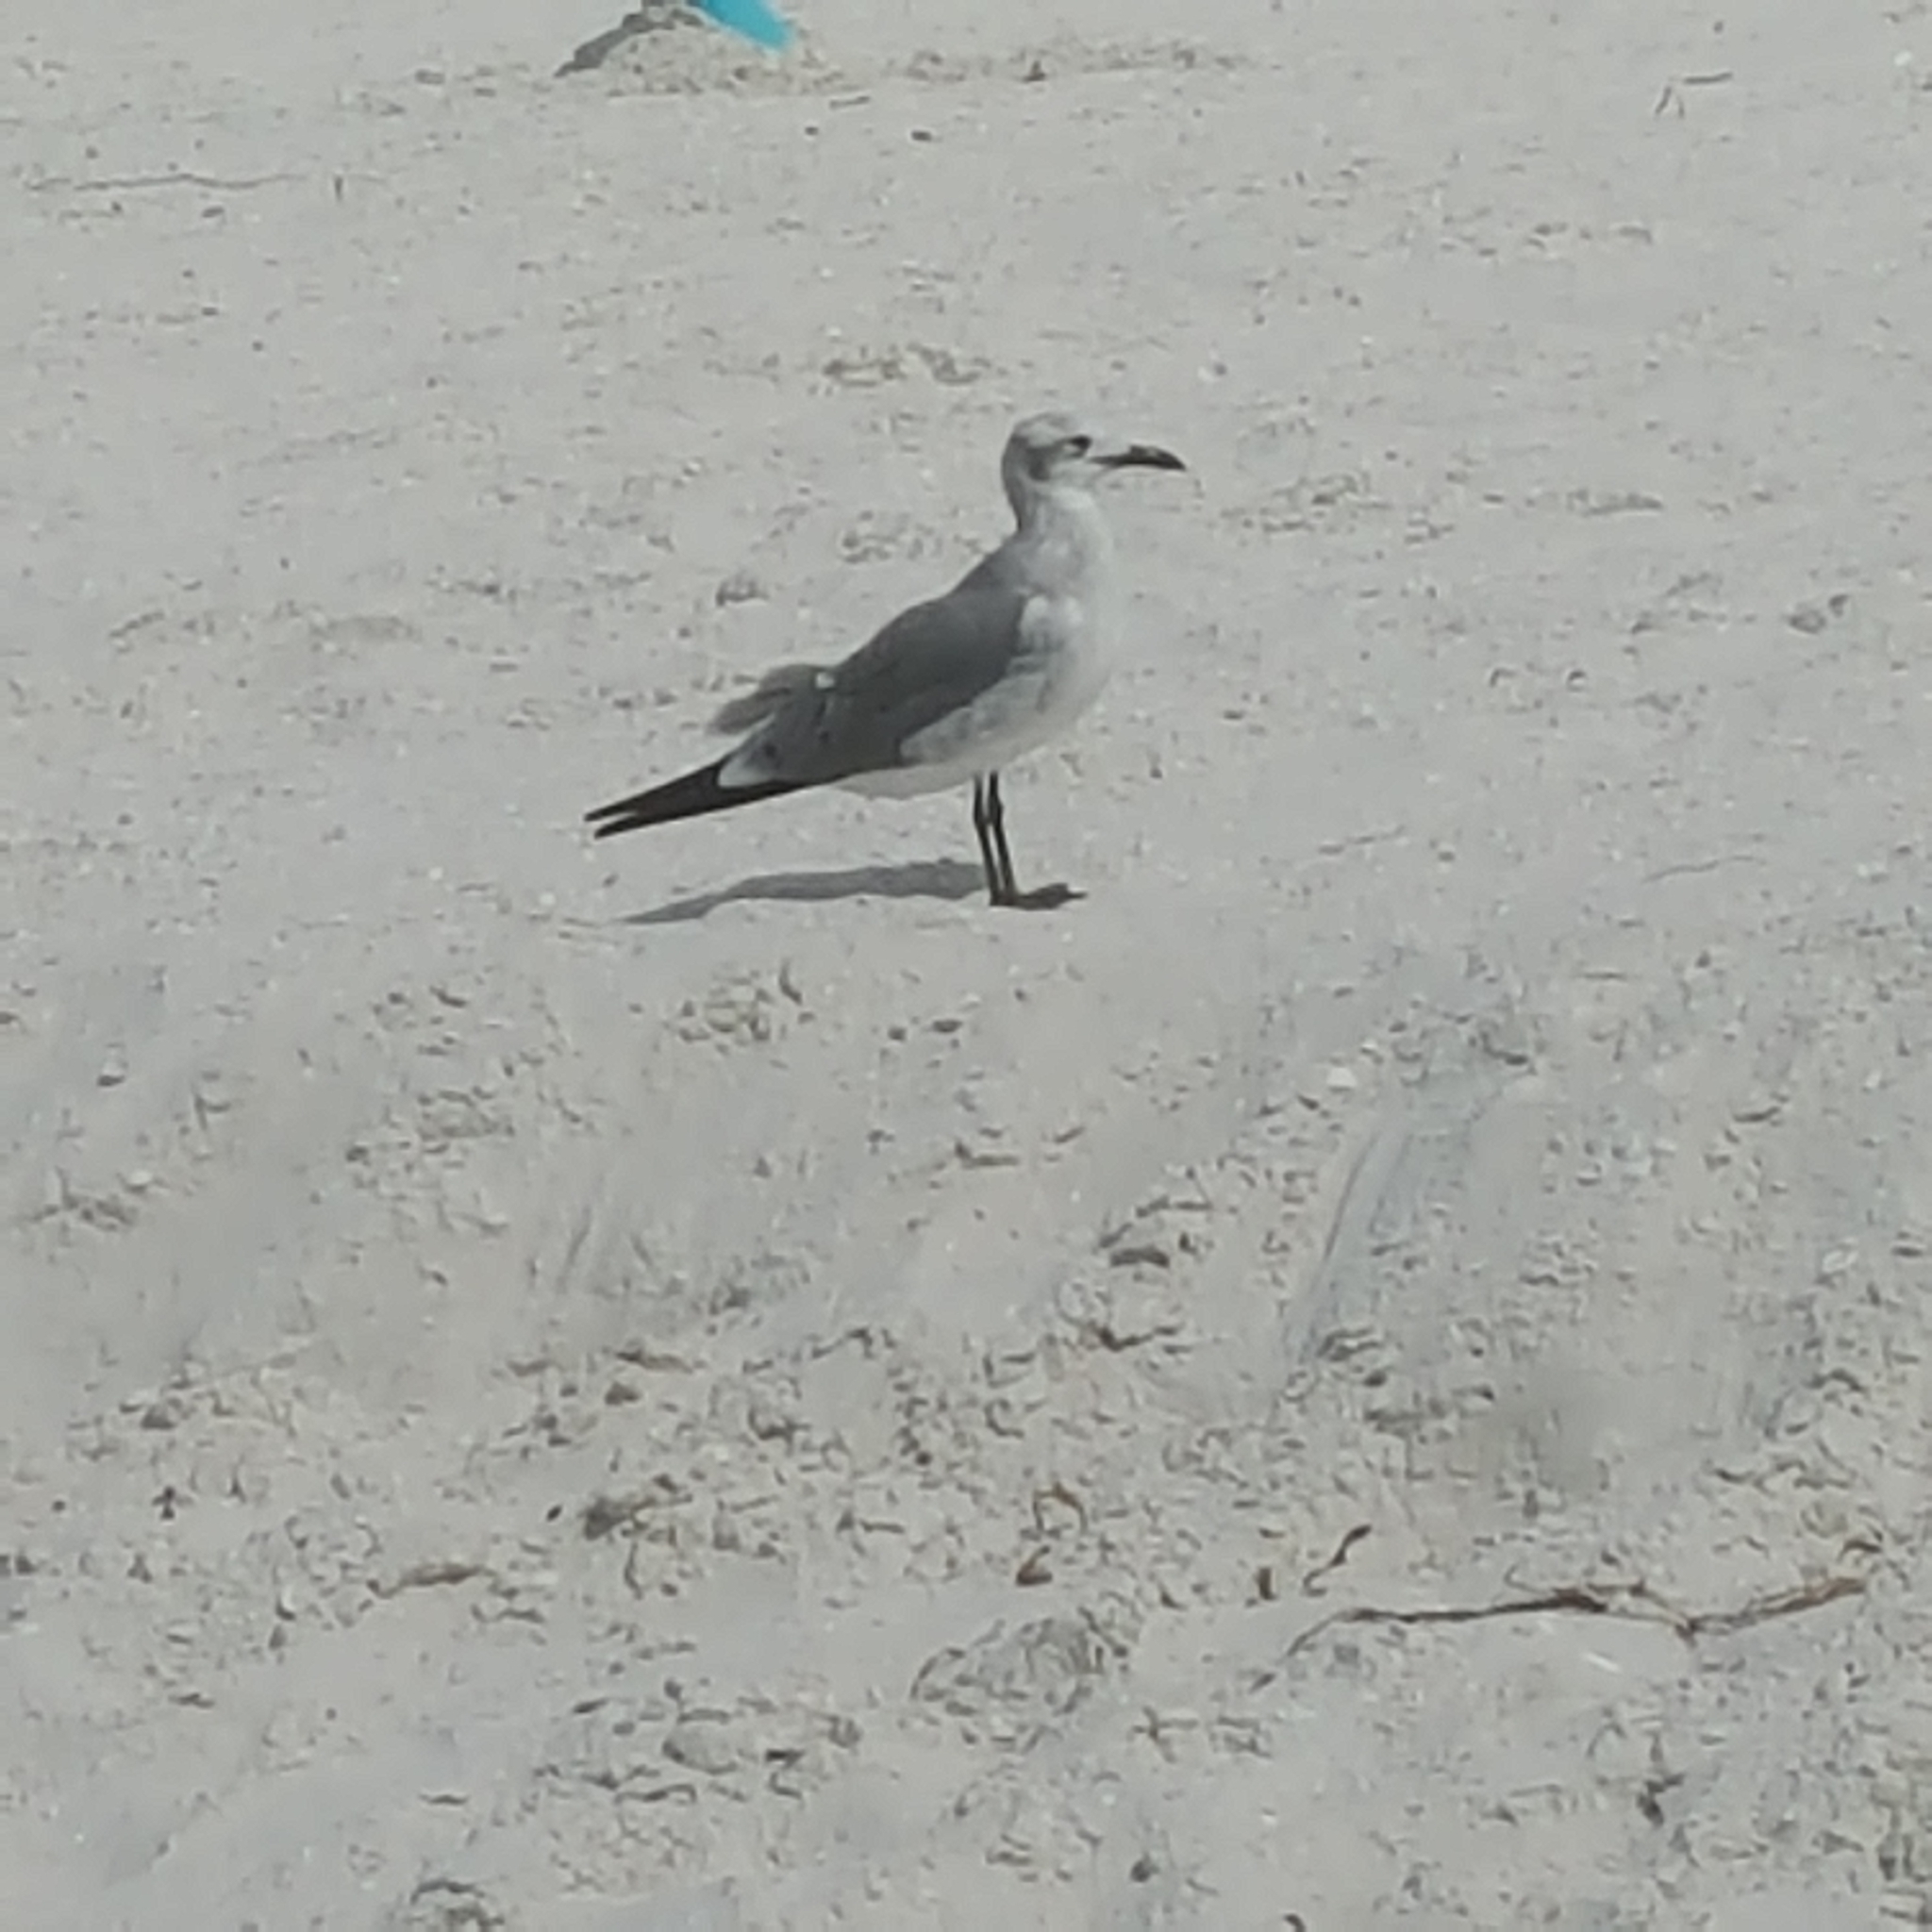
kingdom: Animalia
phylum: Chordata
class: Aves
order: Charadriiformes
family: Laridae
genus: Leucophaeus
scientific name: Leucophaeus atricilla
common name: Laughing gull
